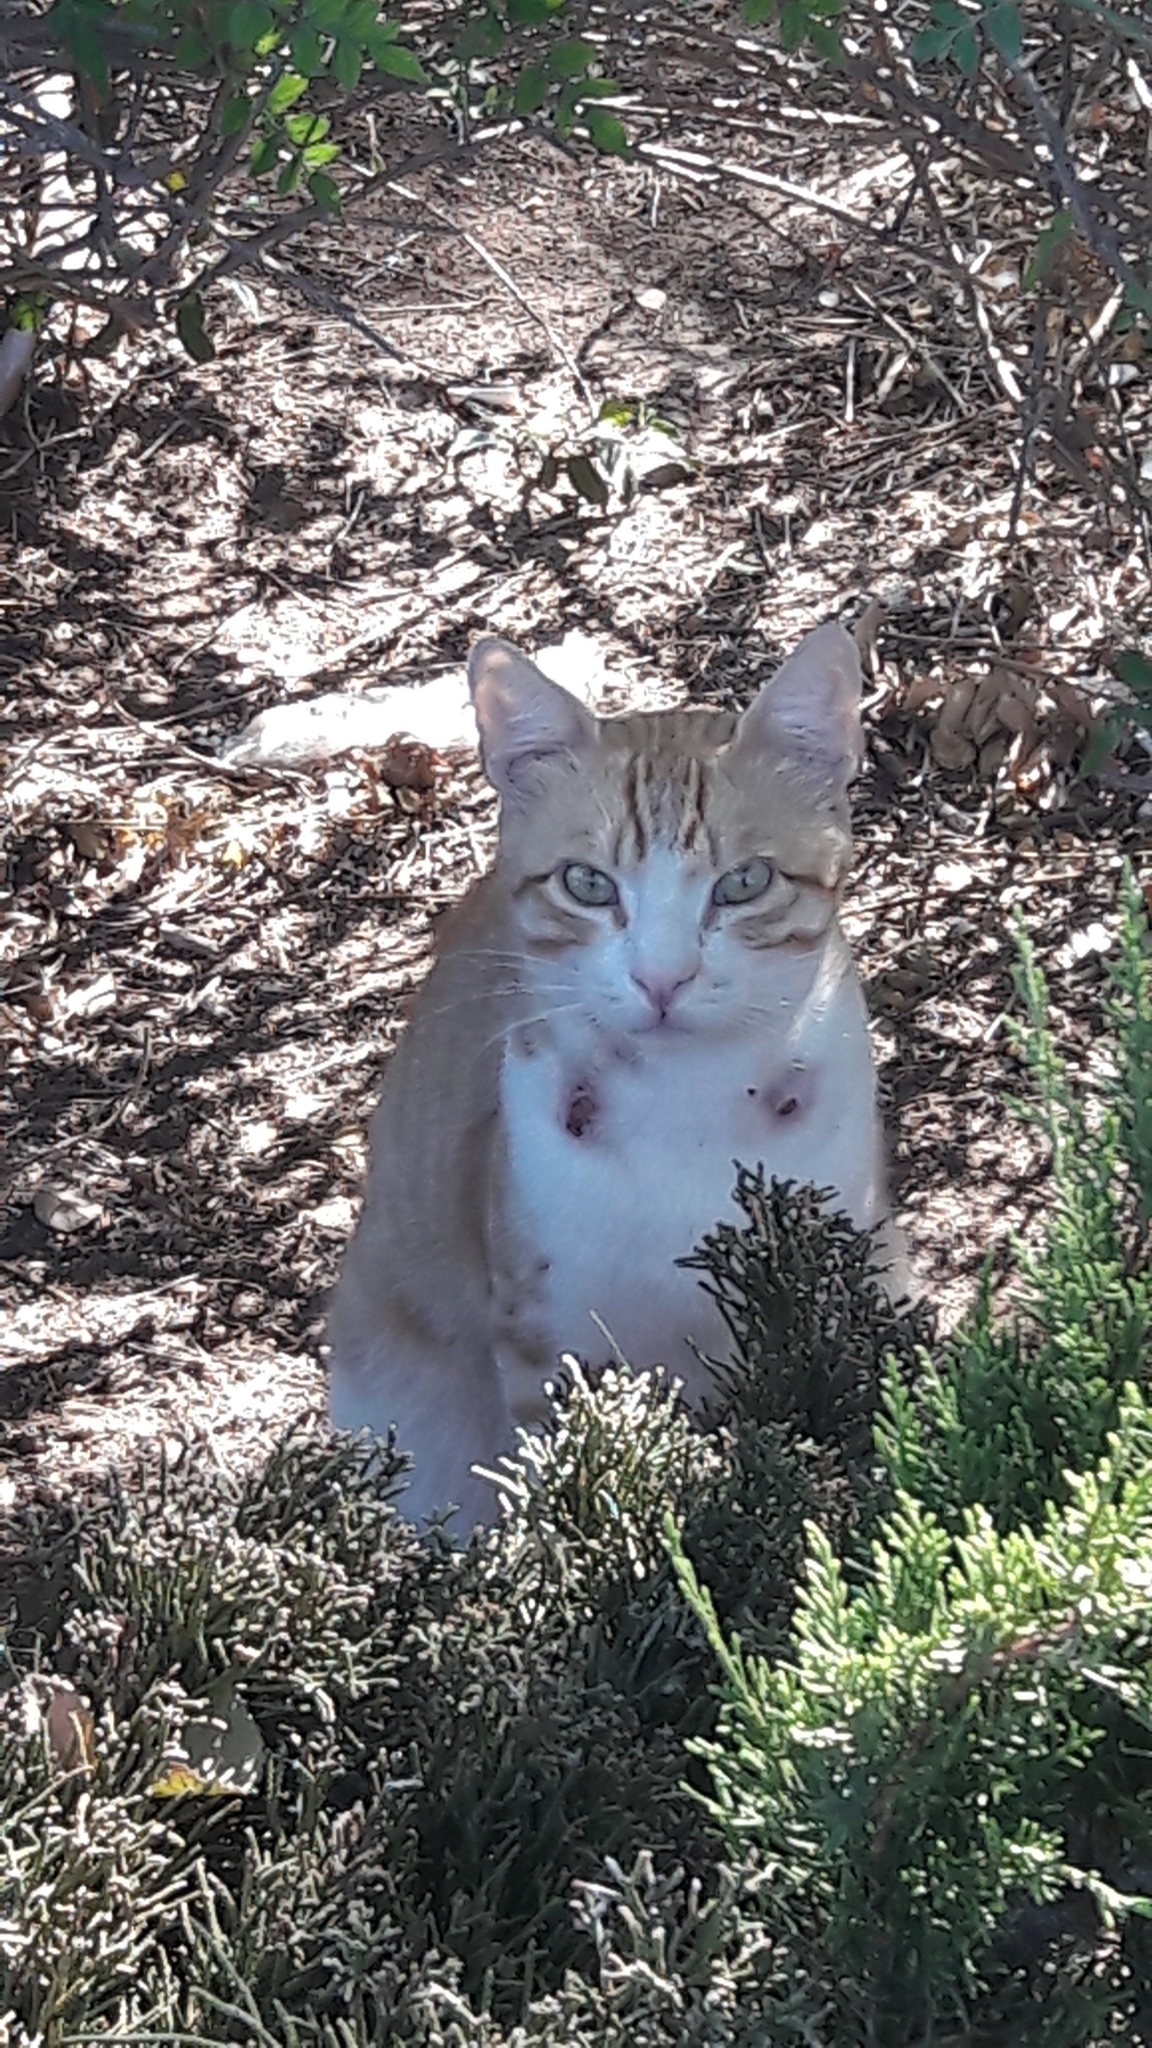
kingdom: Animalia
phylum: Chordata
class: Mammalia
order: Carnivora
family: Felidae
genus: Felis
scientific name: Felis catus
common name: Domestic cat
